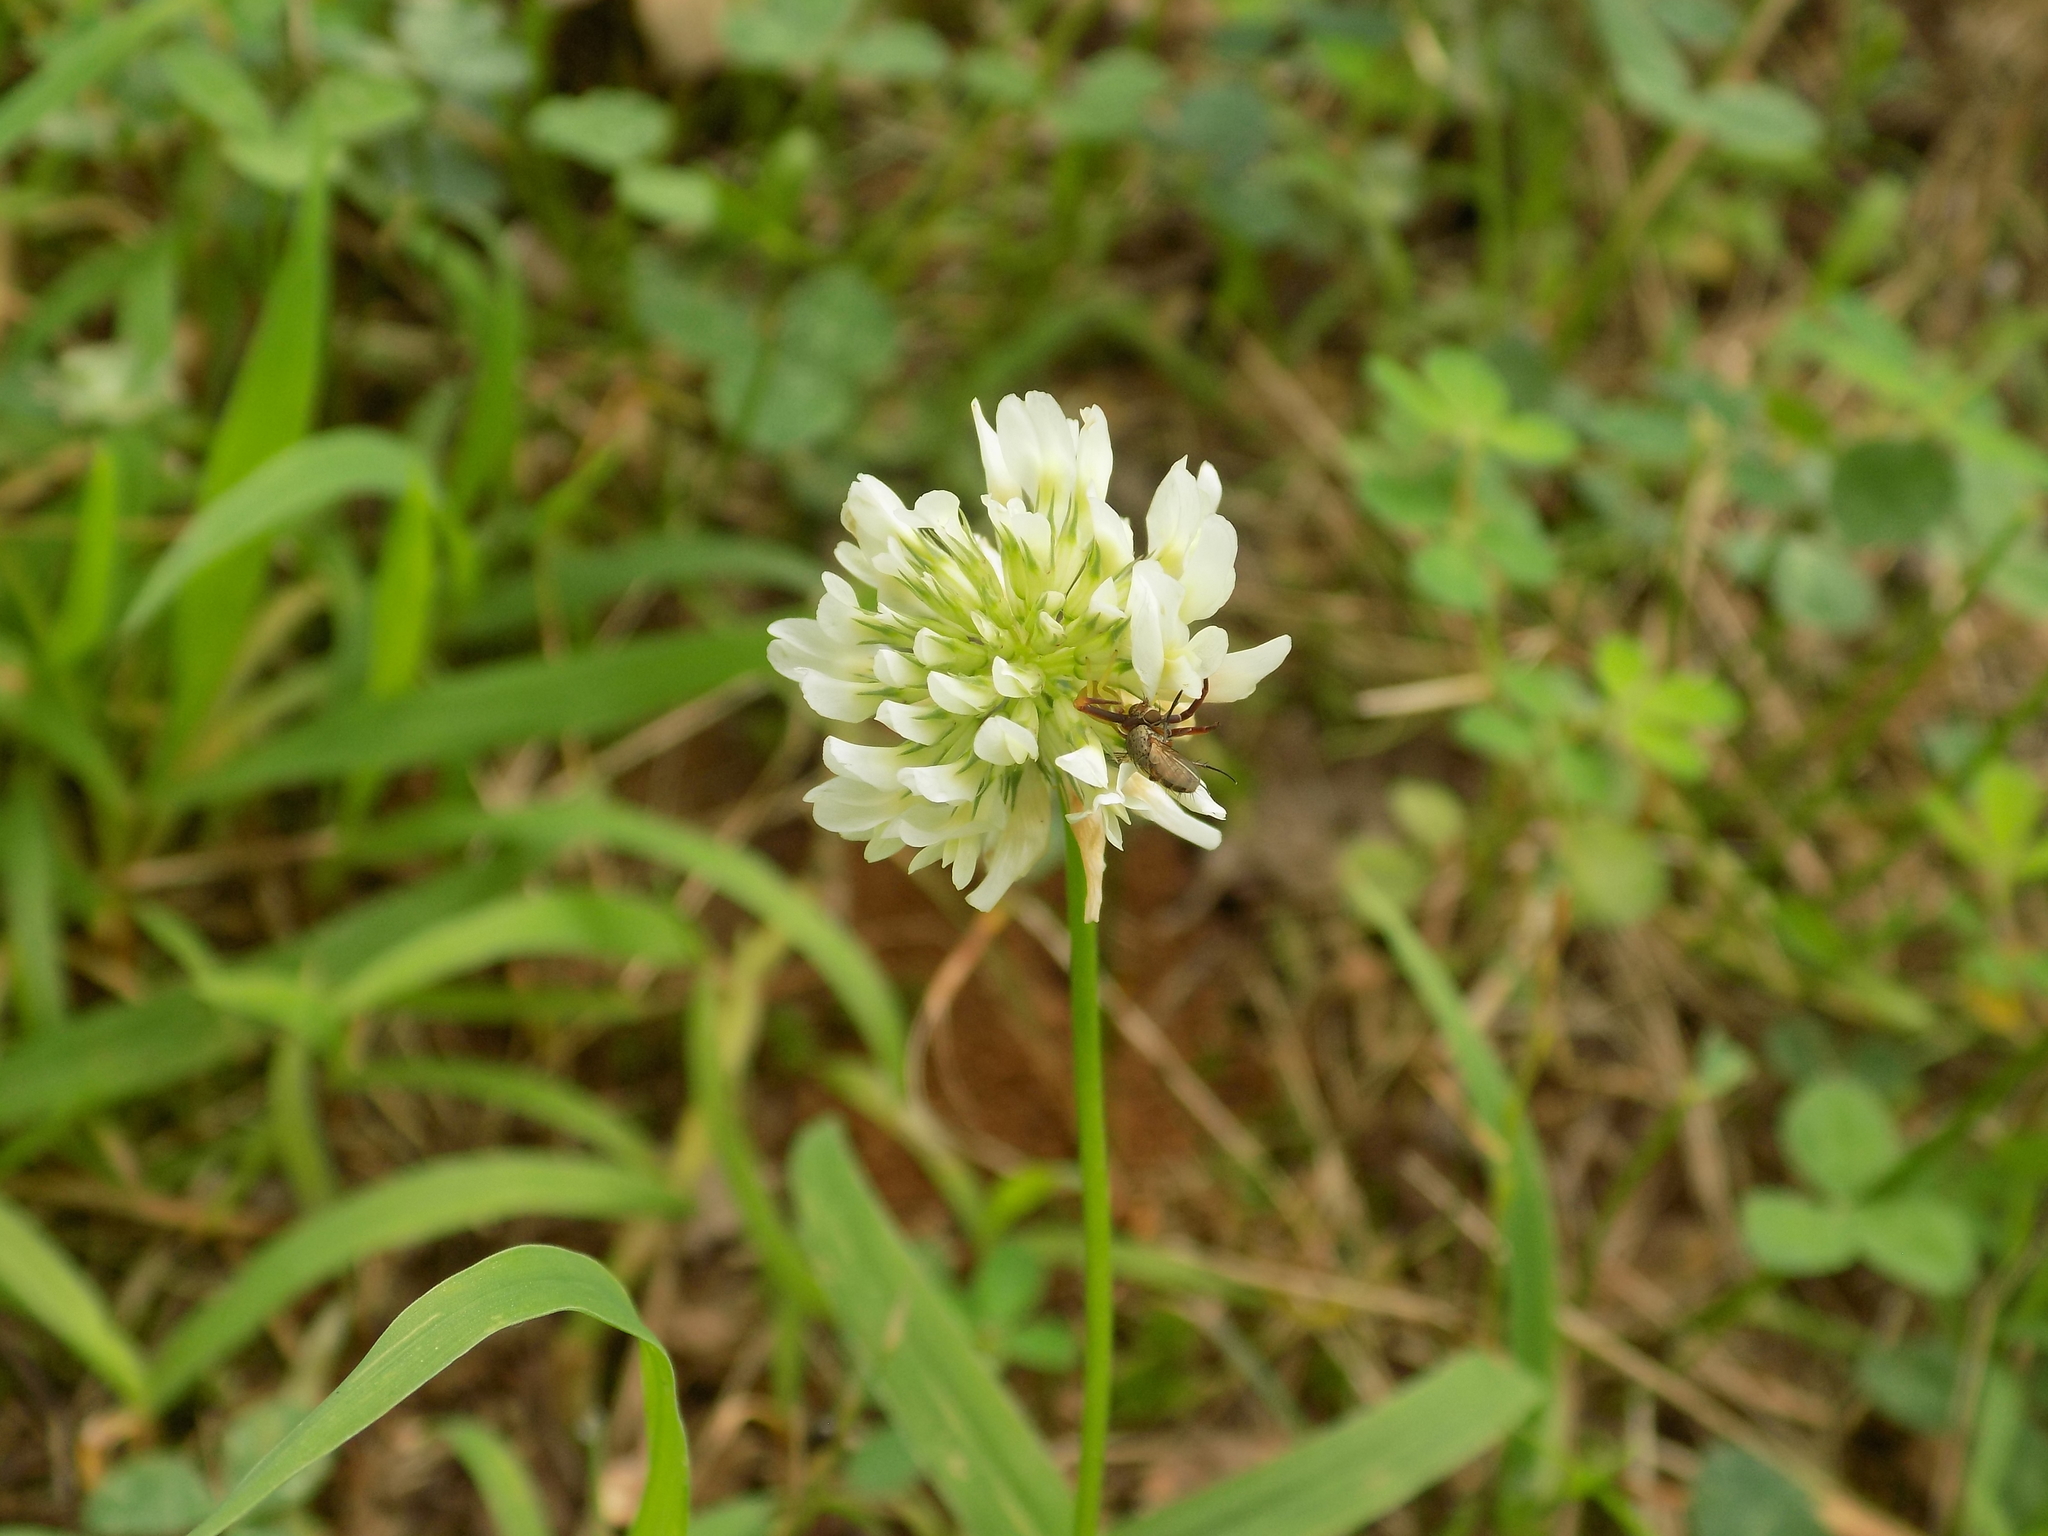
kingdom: Plantae
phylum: Tracheophyta
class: Magnoliopsida
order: Fabales
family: Fabaceae
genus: Trifolium
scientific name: Trifolium repens
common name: White clover
